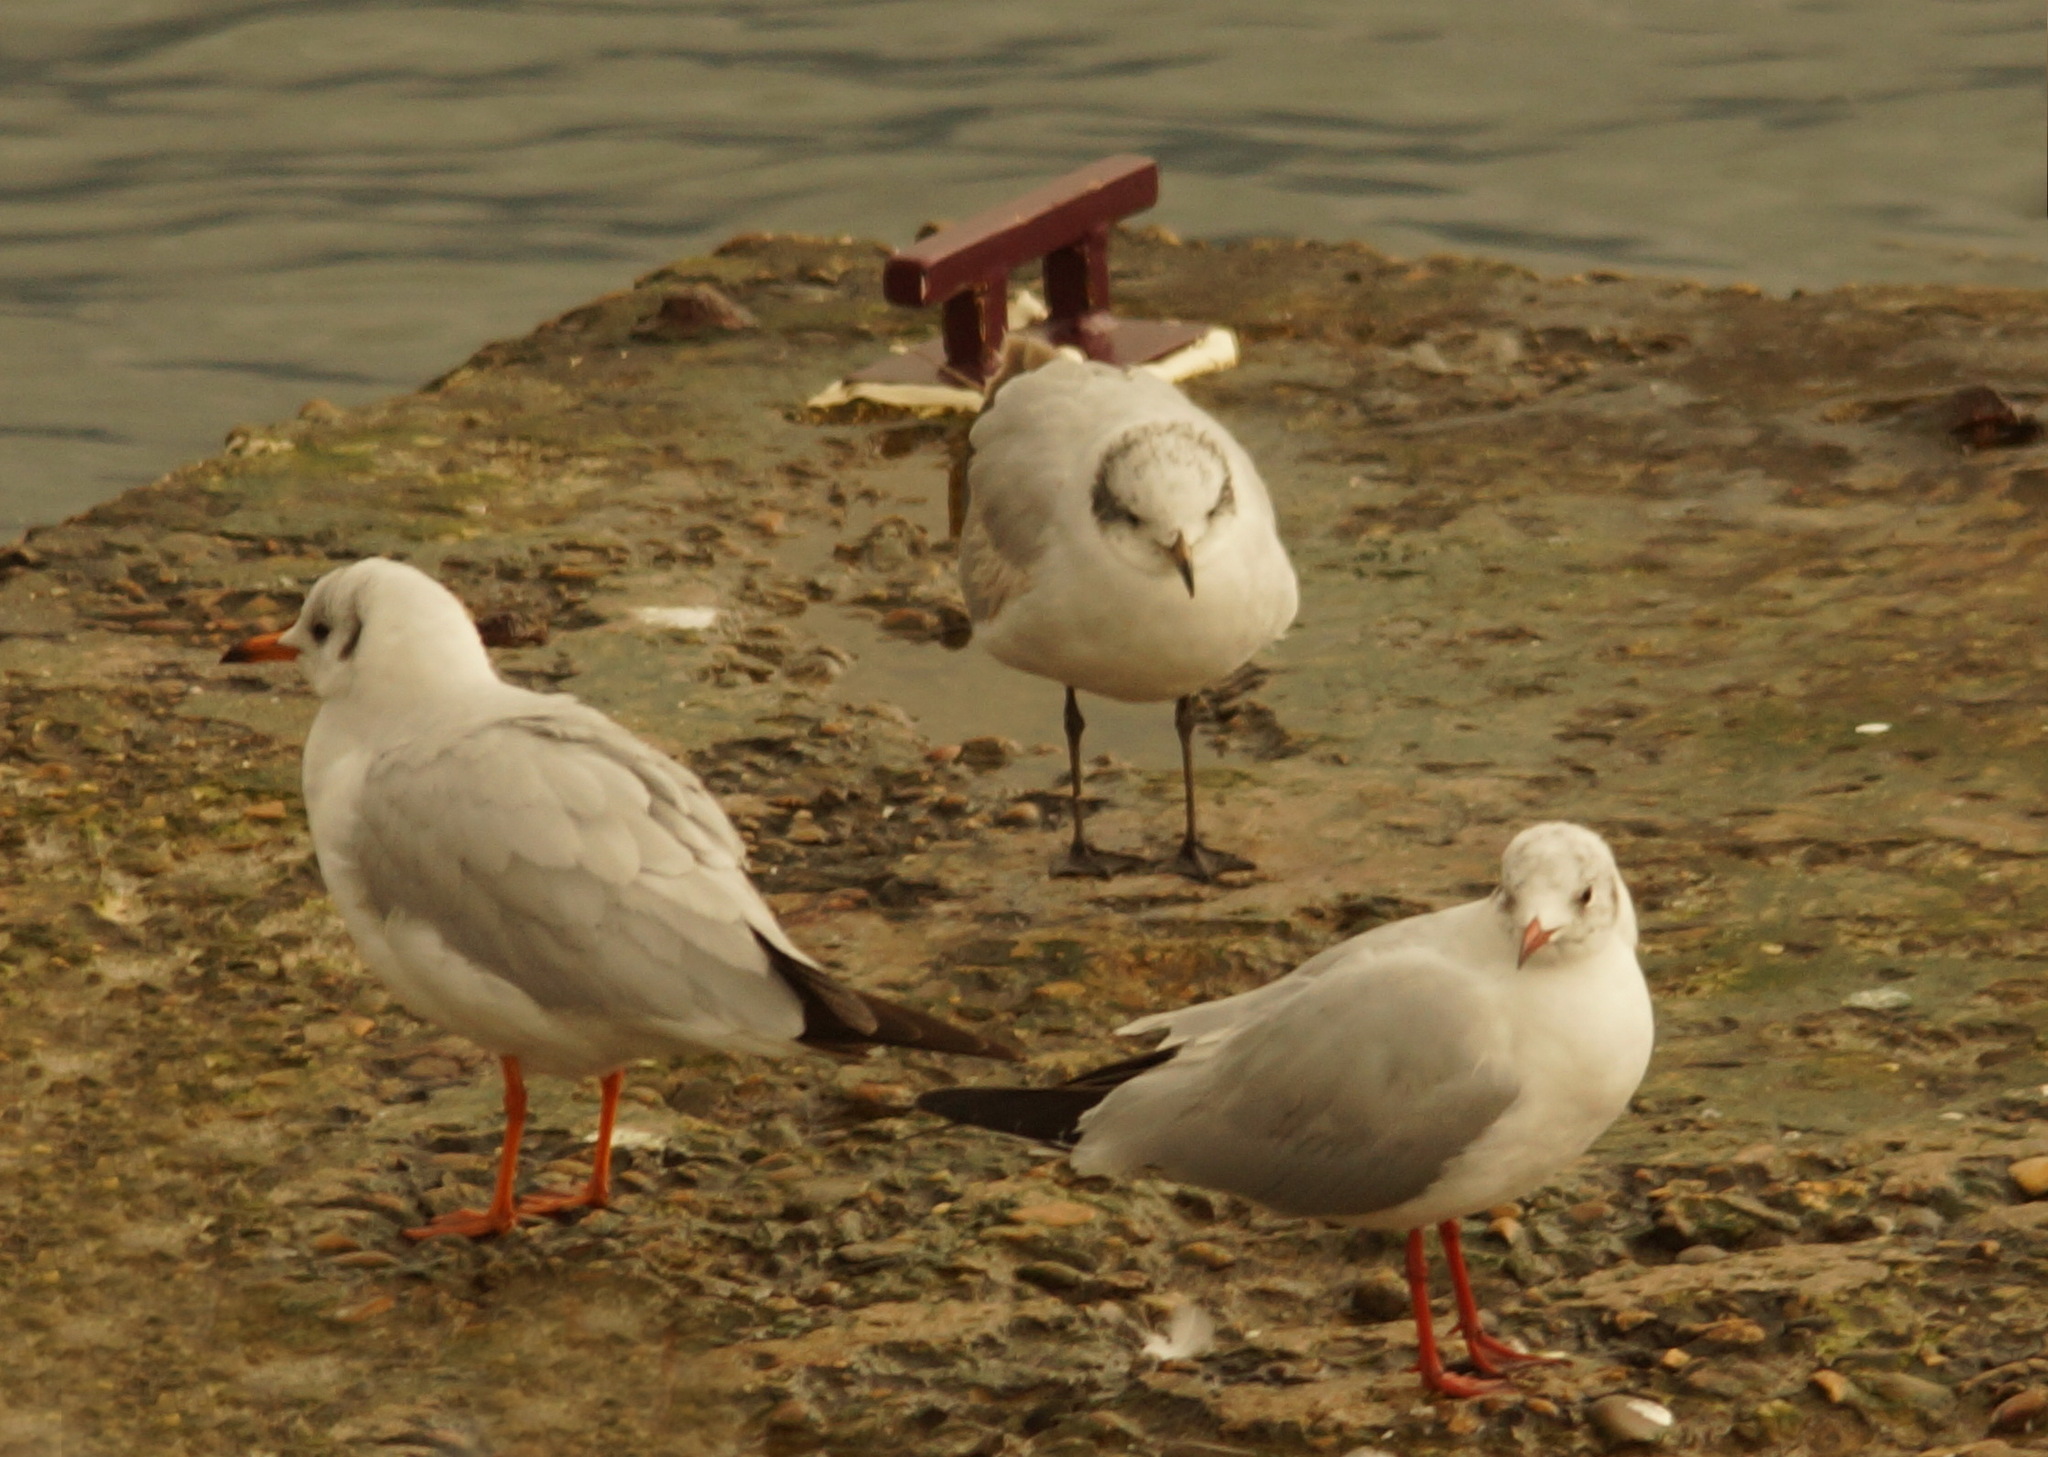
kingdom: Animalia
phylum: Chordata
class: Aves
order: Charadriiformes
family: Laridae
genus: Ichthyaetus
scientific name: Ichthyaetus melanocephalus
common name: Mediterranean gull
